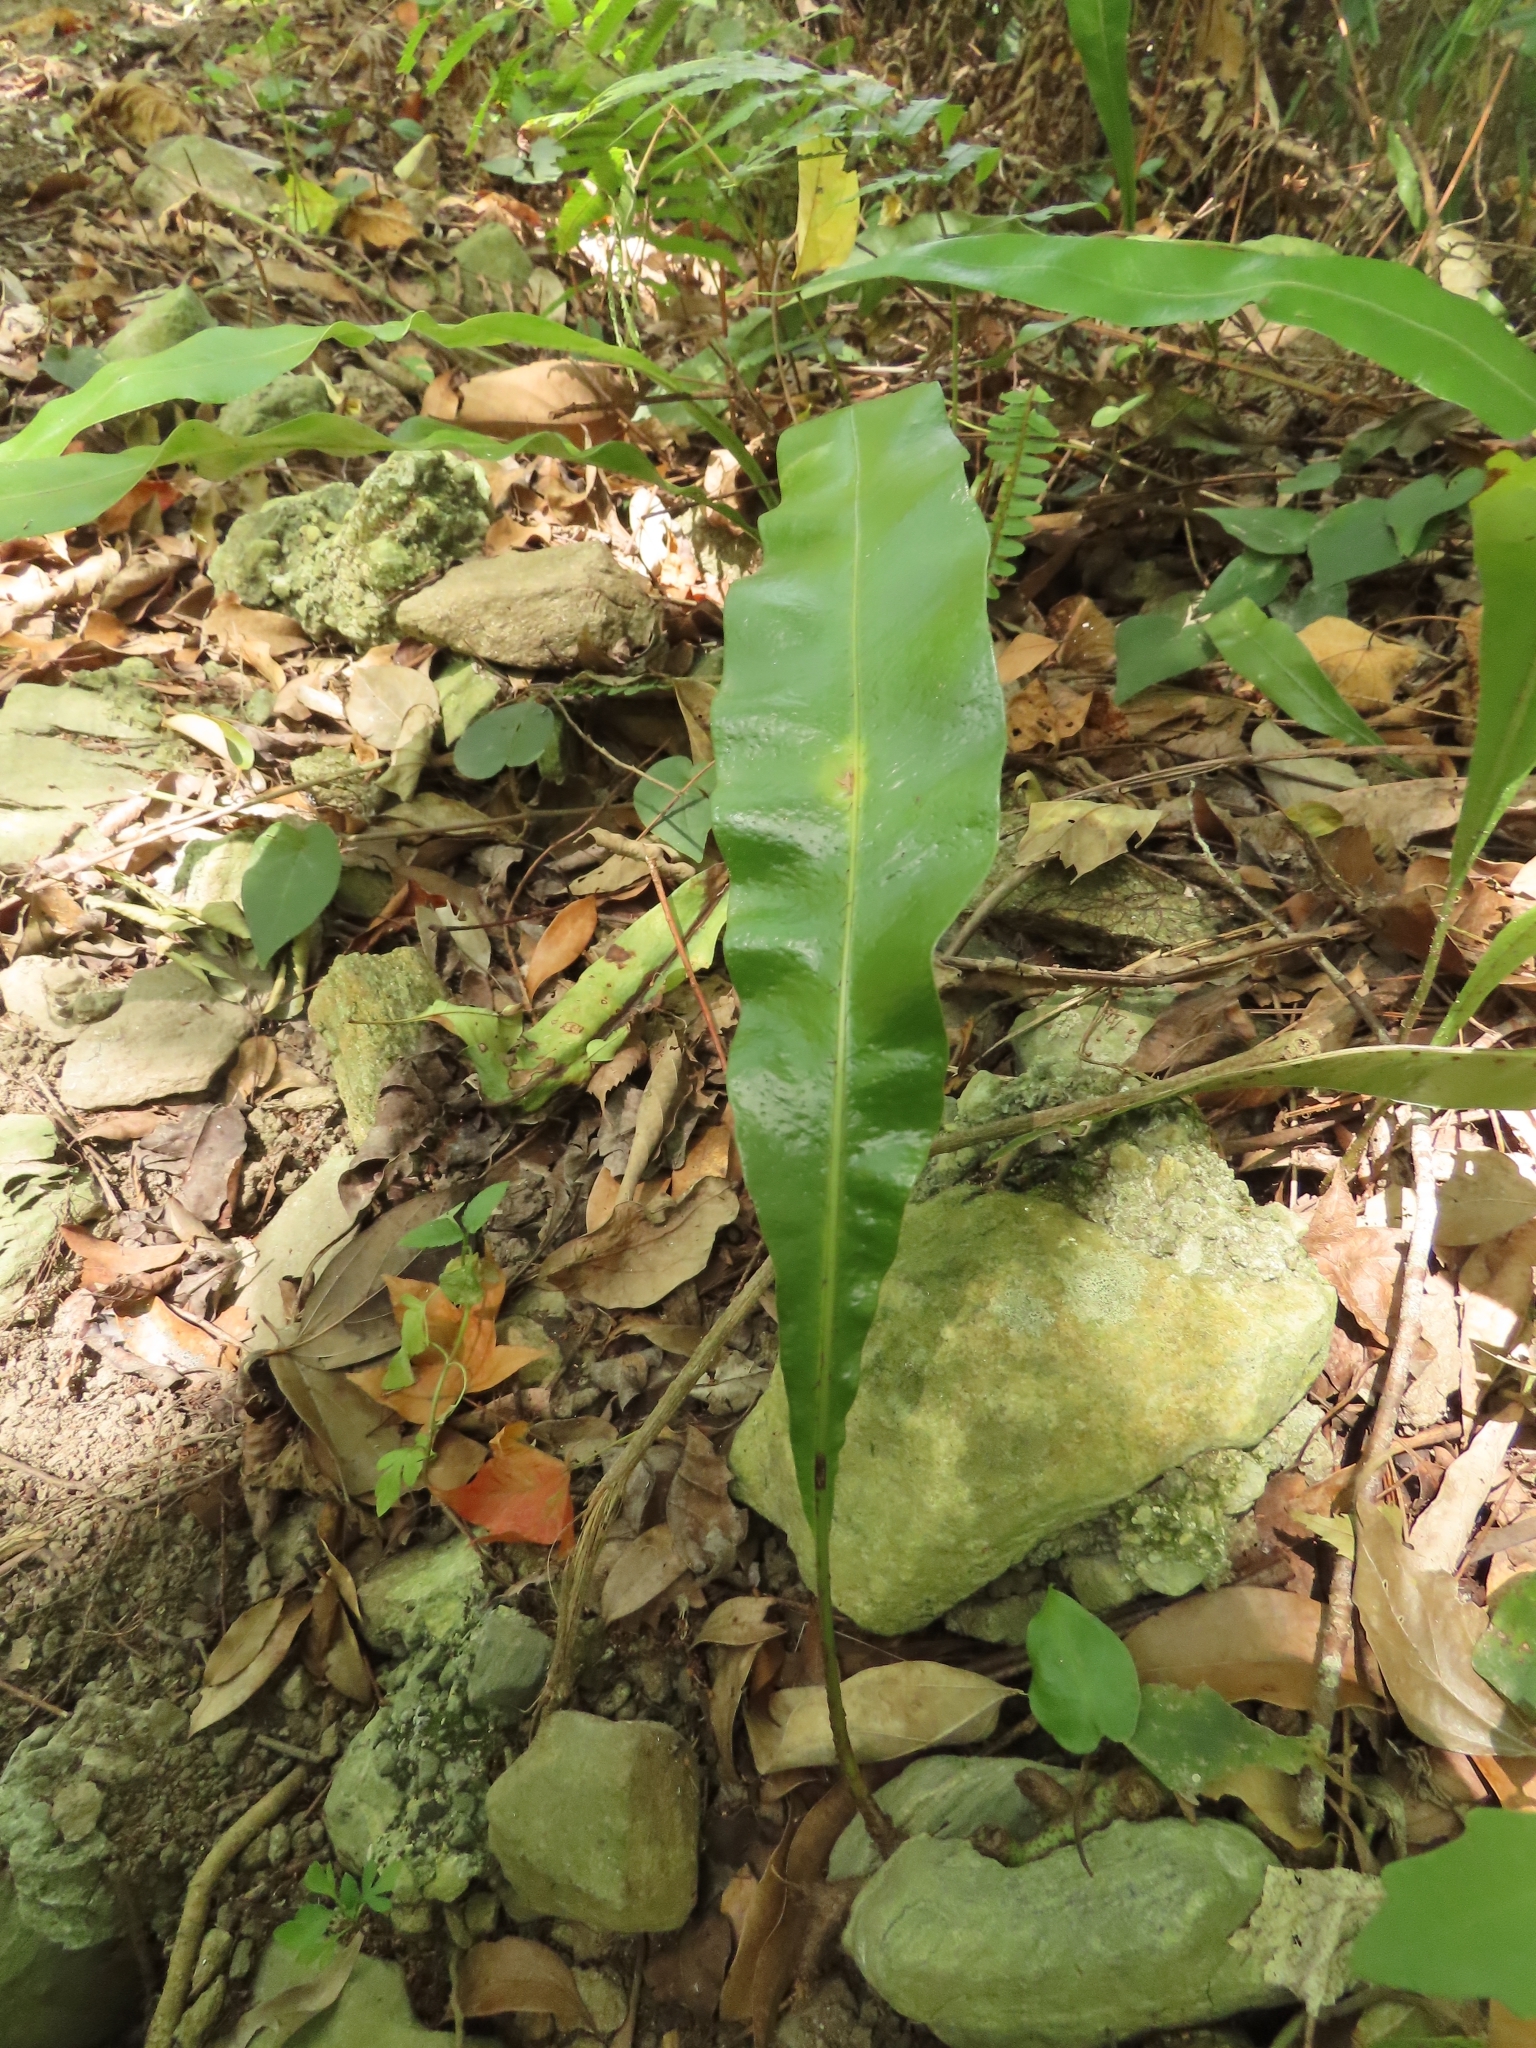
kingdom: Plantae
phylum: Tracheophyta
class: Polypodiopsida
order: Polypodiales
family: Polypodiaceae
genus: Lepisorus
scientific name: Lepisorus fortuni
